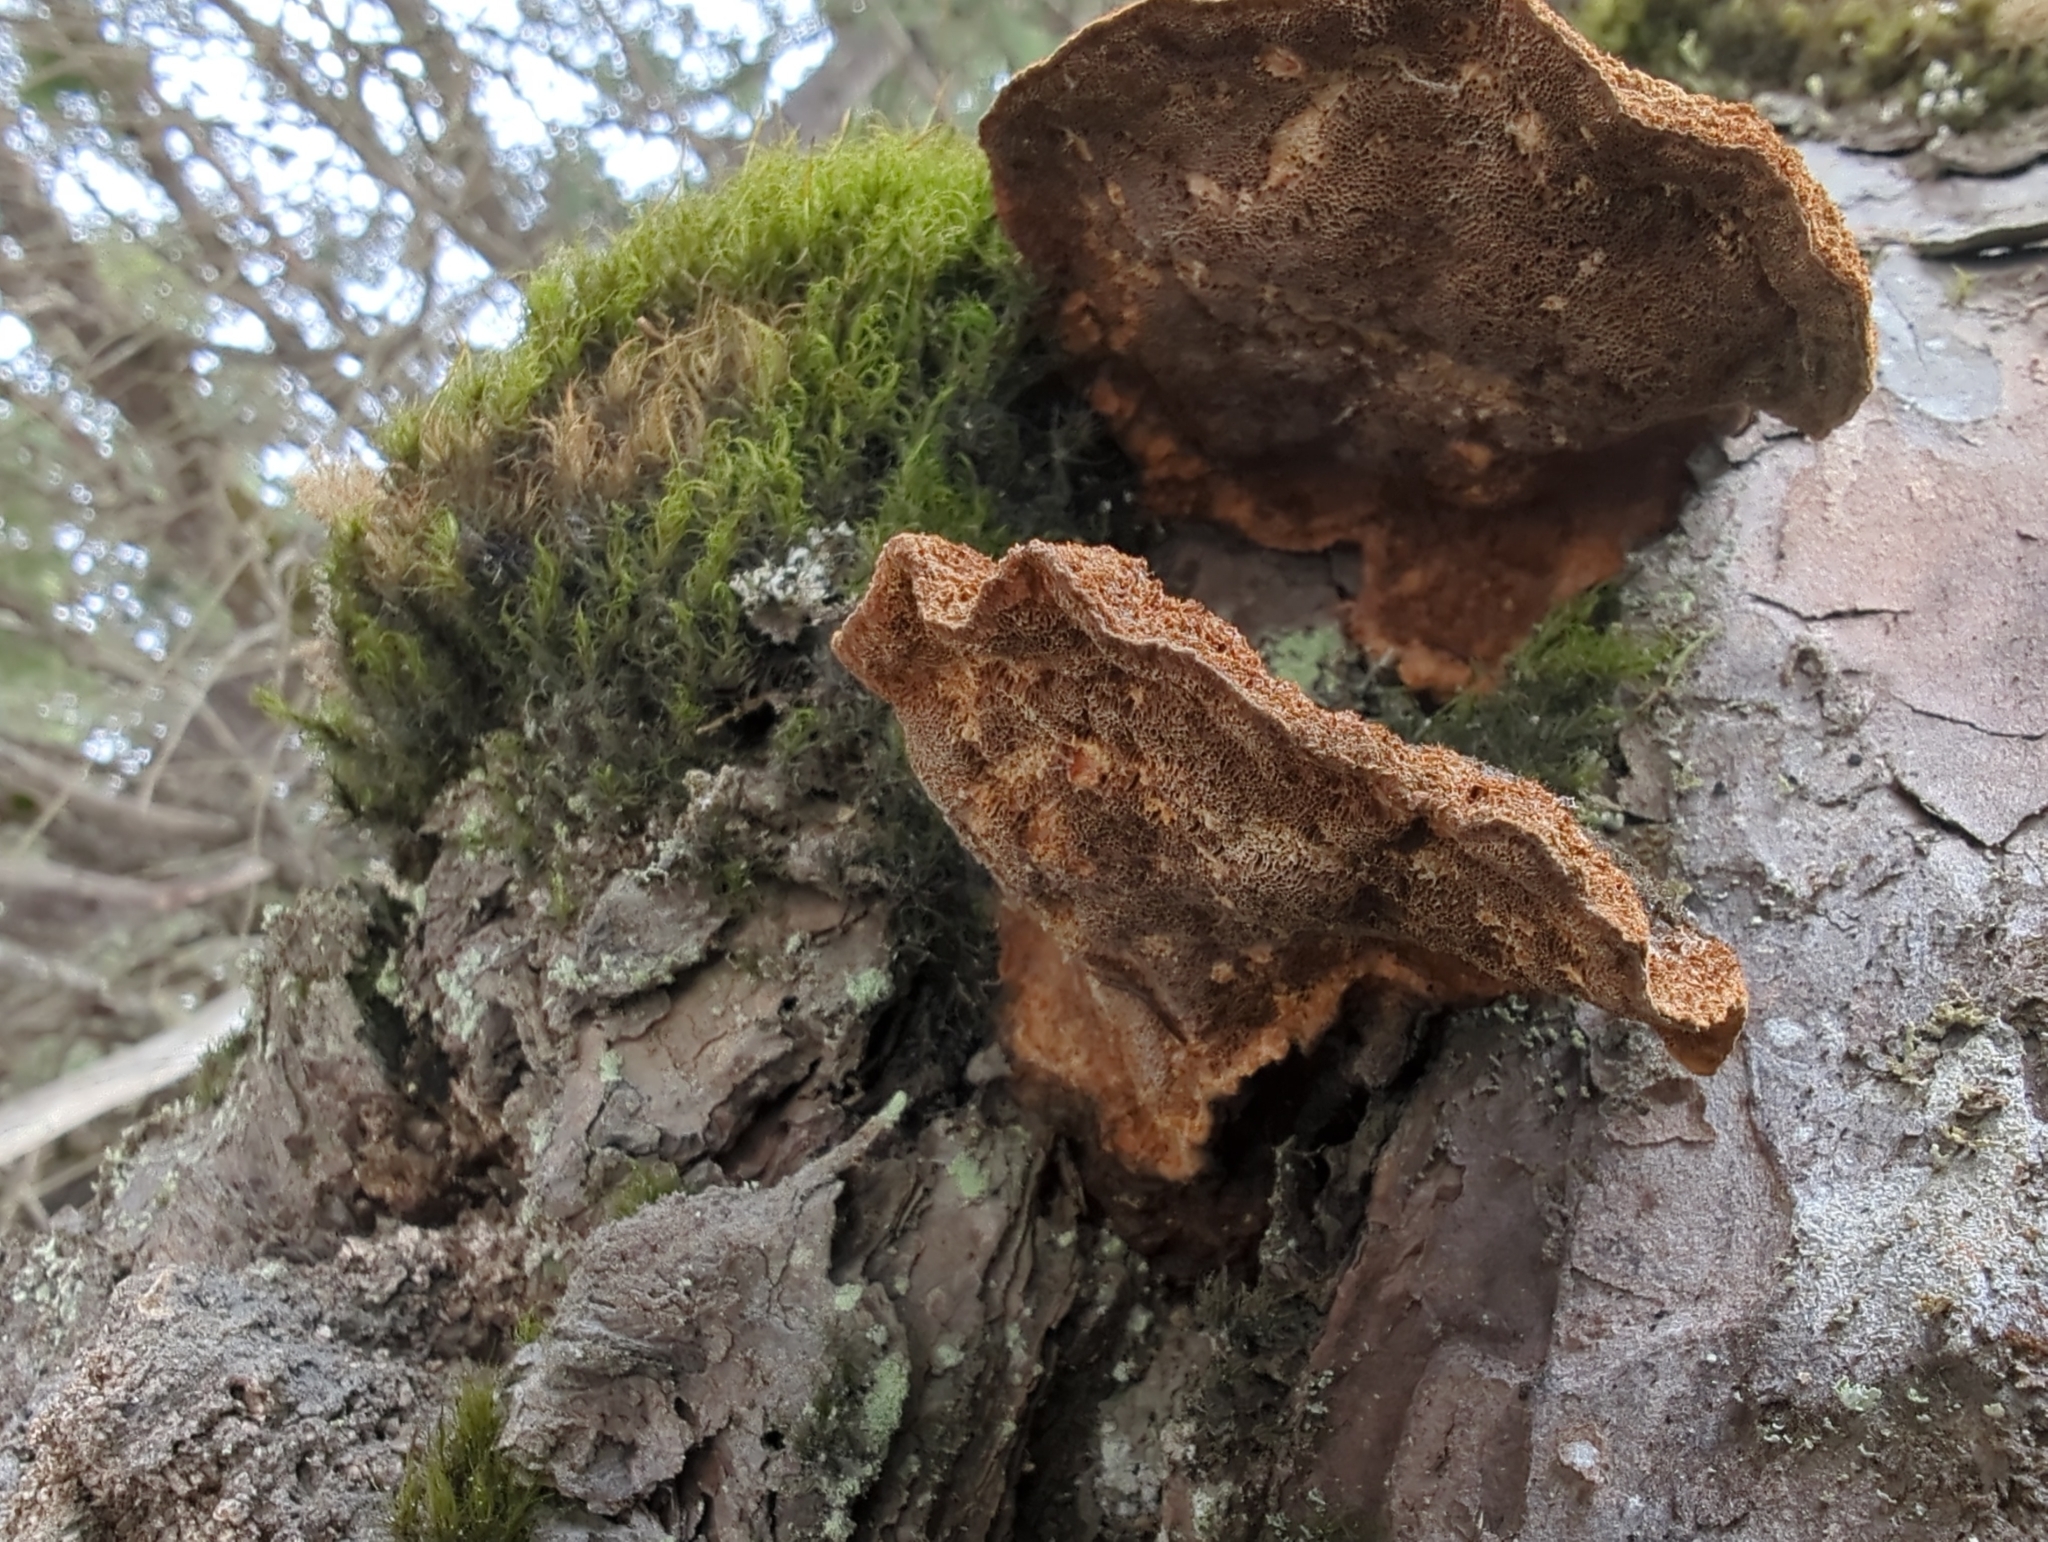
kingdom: Fungi
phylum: Basidiomycota
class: Agaricomycetes
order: Hymenochaetales
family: Hymenochaetaceae
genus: Porodaedalea
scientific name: Porodaedalea pini
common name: Pine bracket
